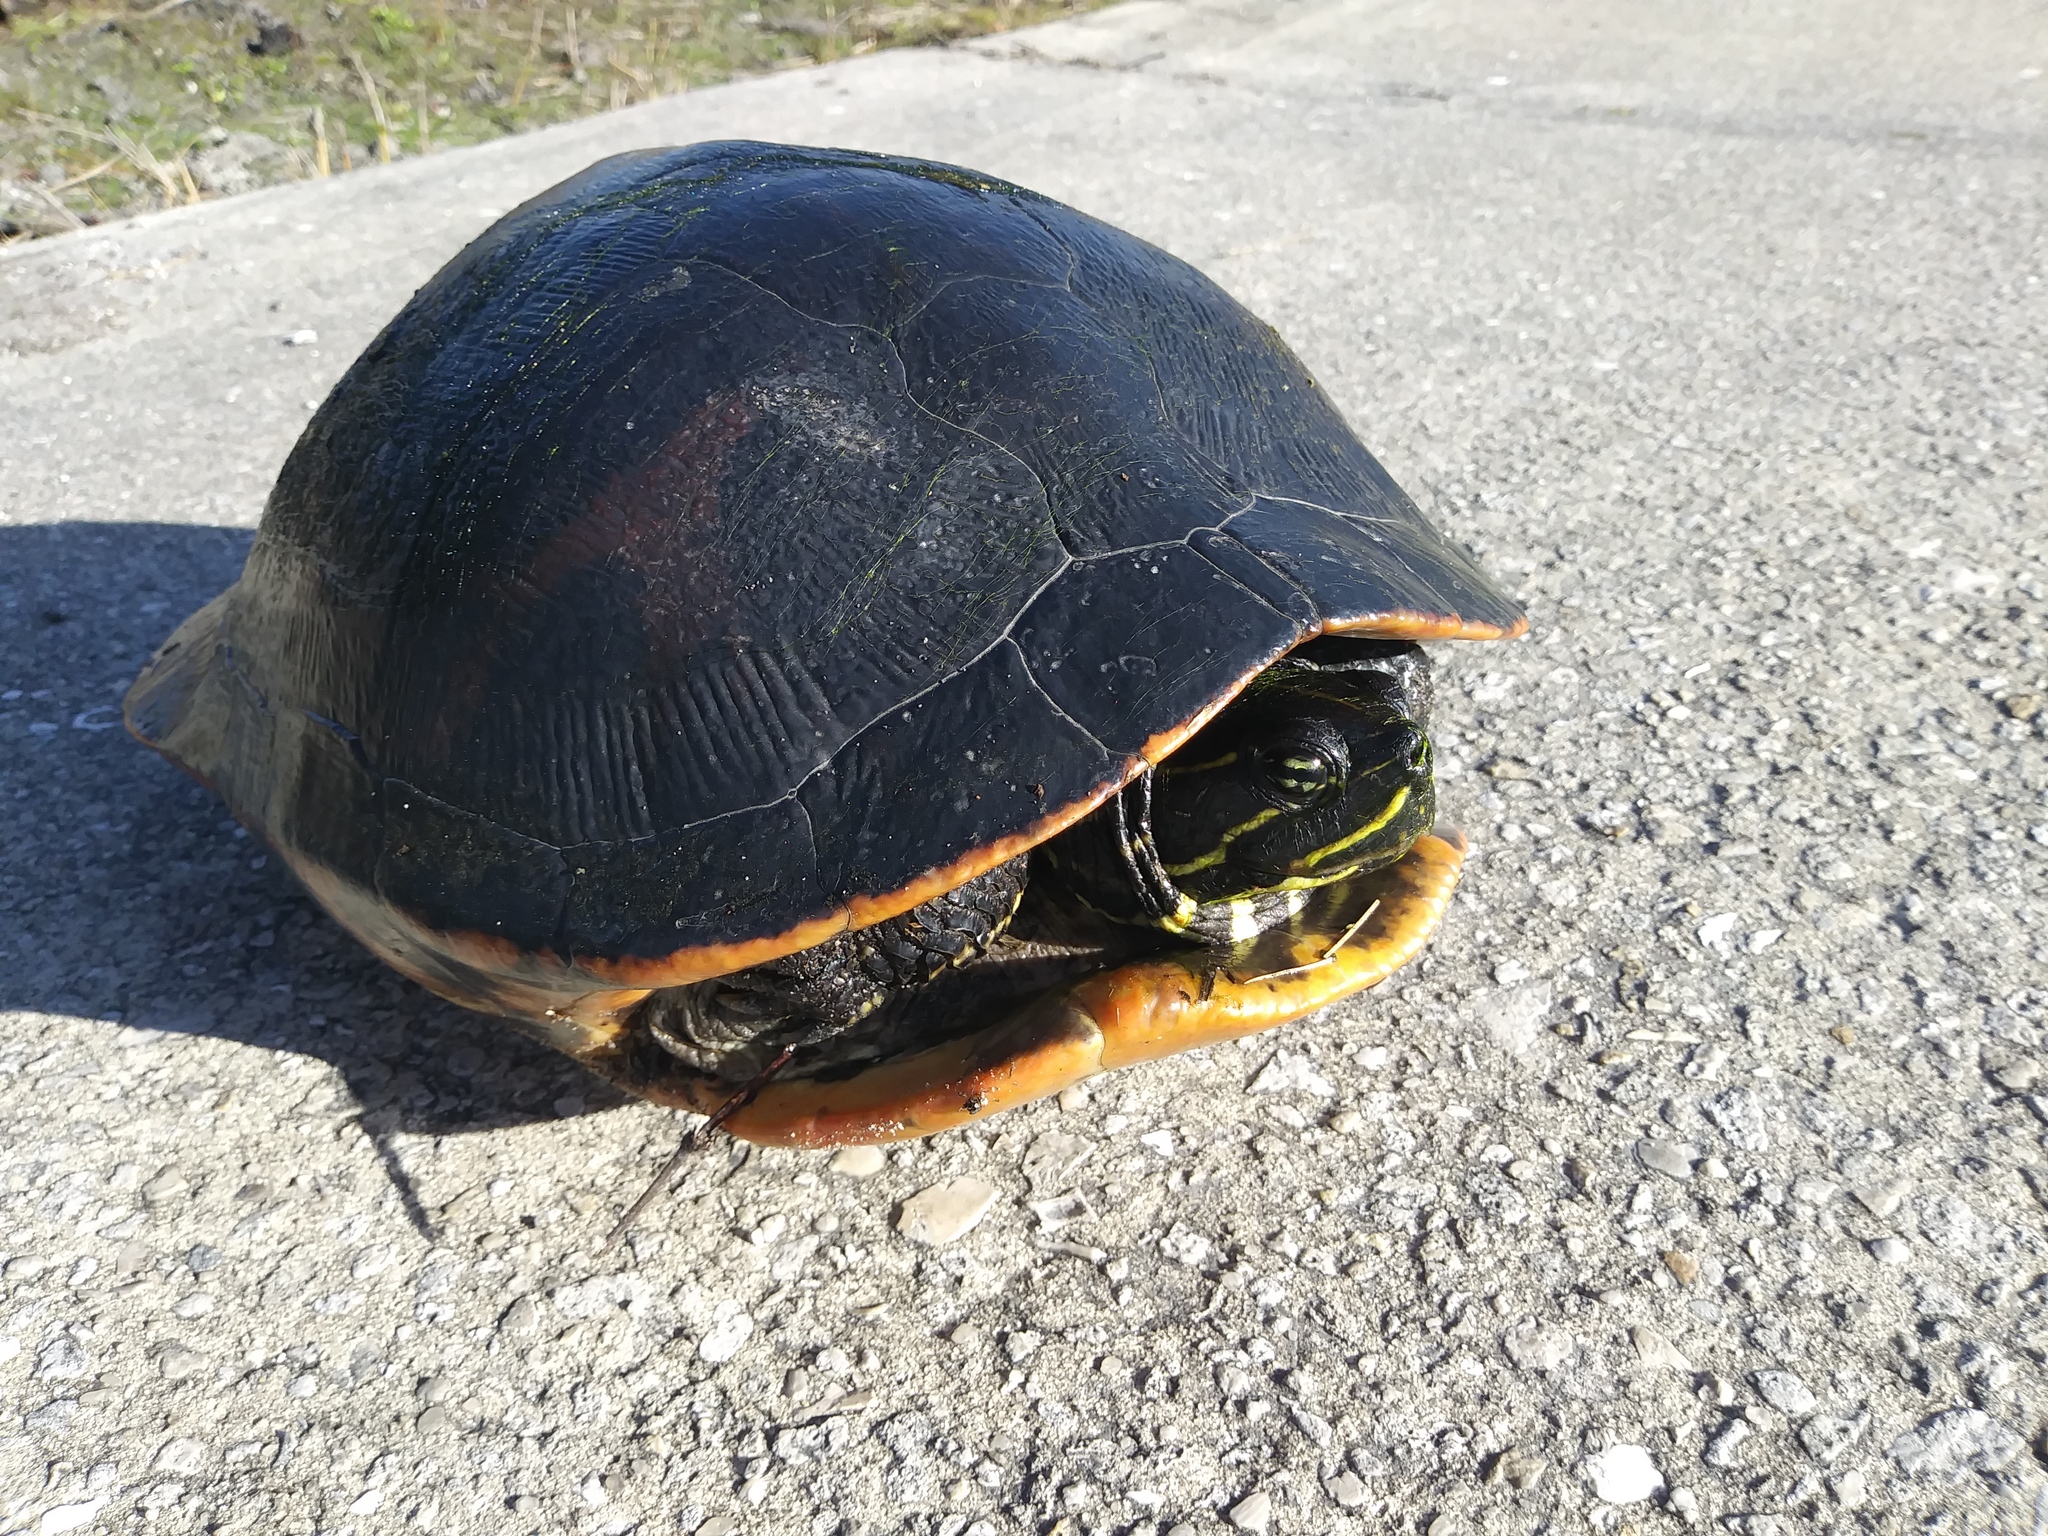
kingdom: Animalia
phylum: Chordata
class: Testudines
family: Emydidae
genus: Pseudemys
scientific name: Pseudemys nelsoni
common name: Florida red-bellied turtle
